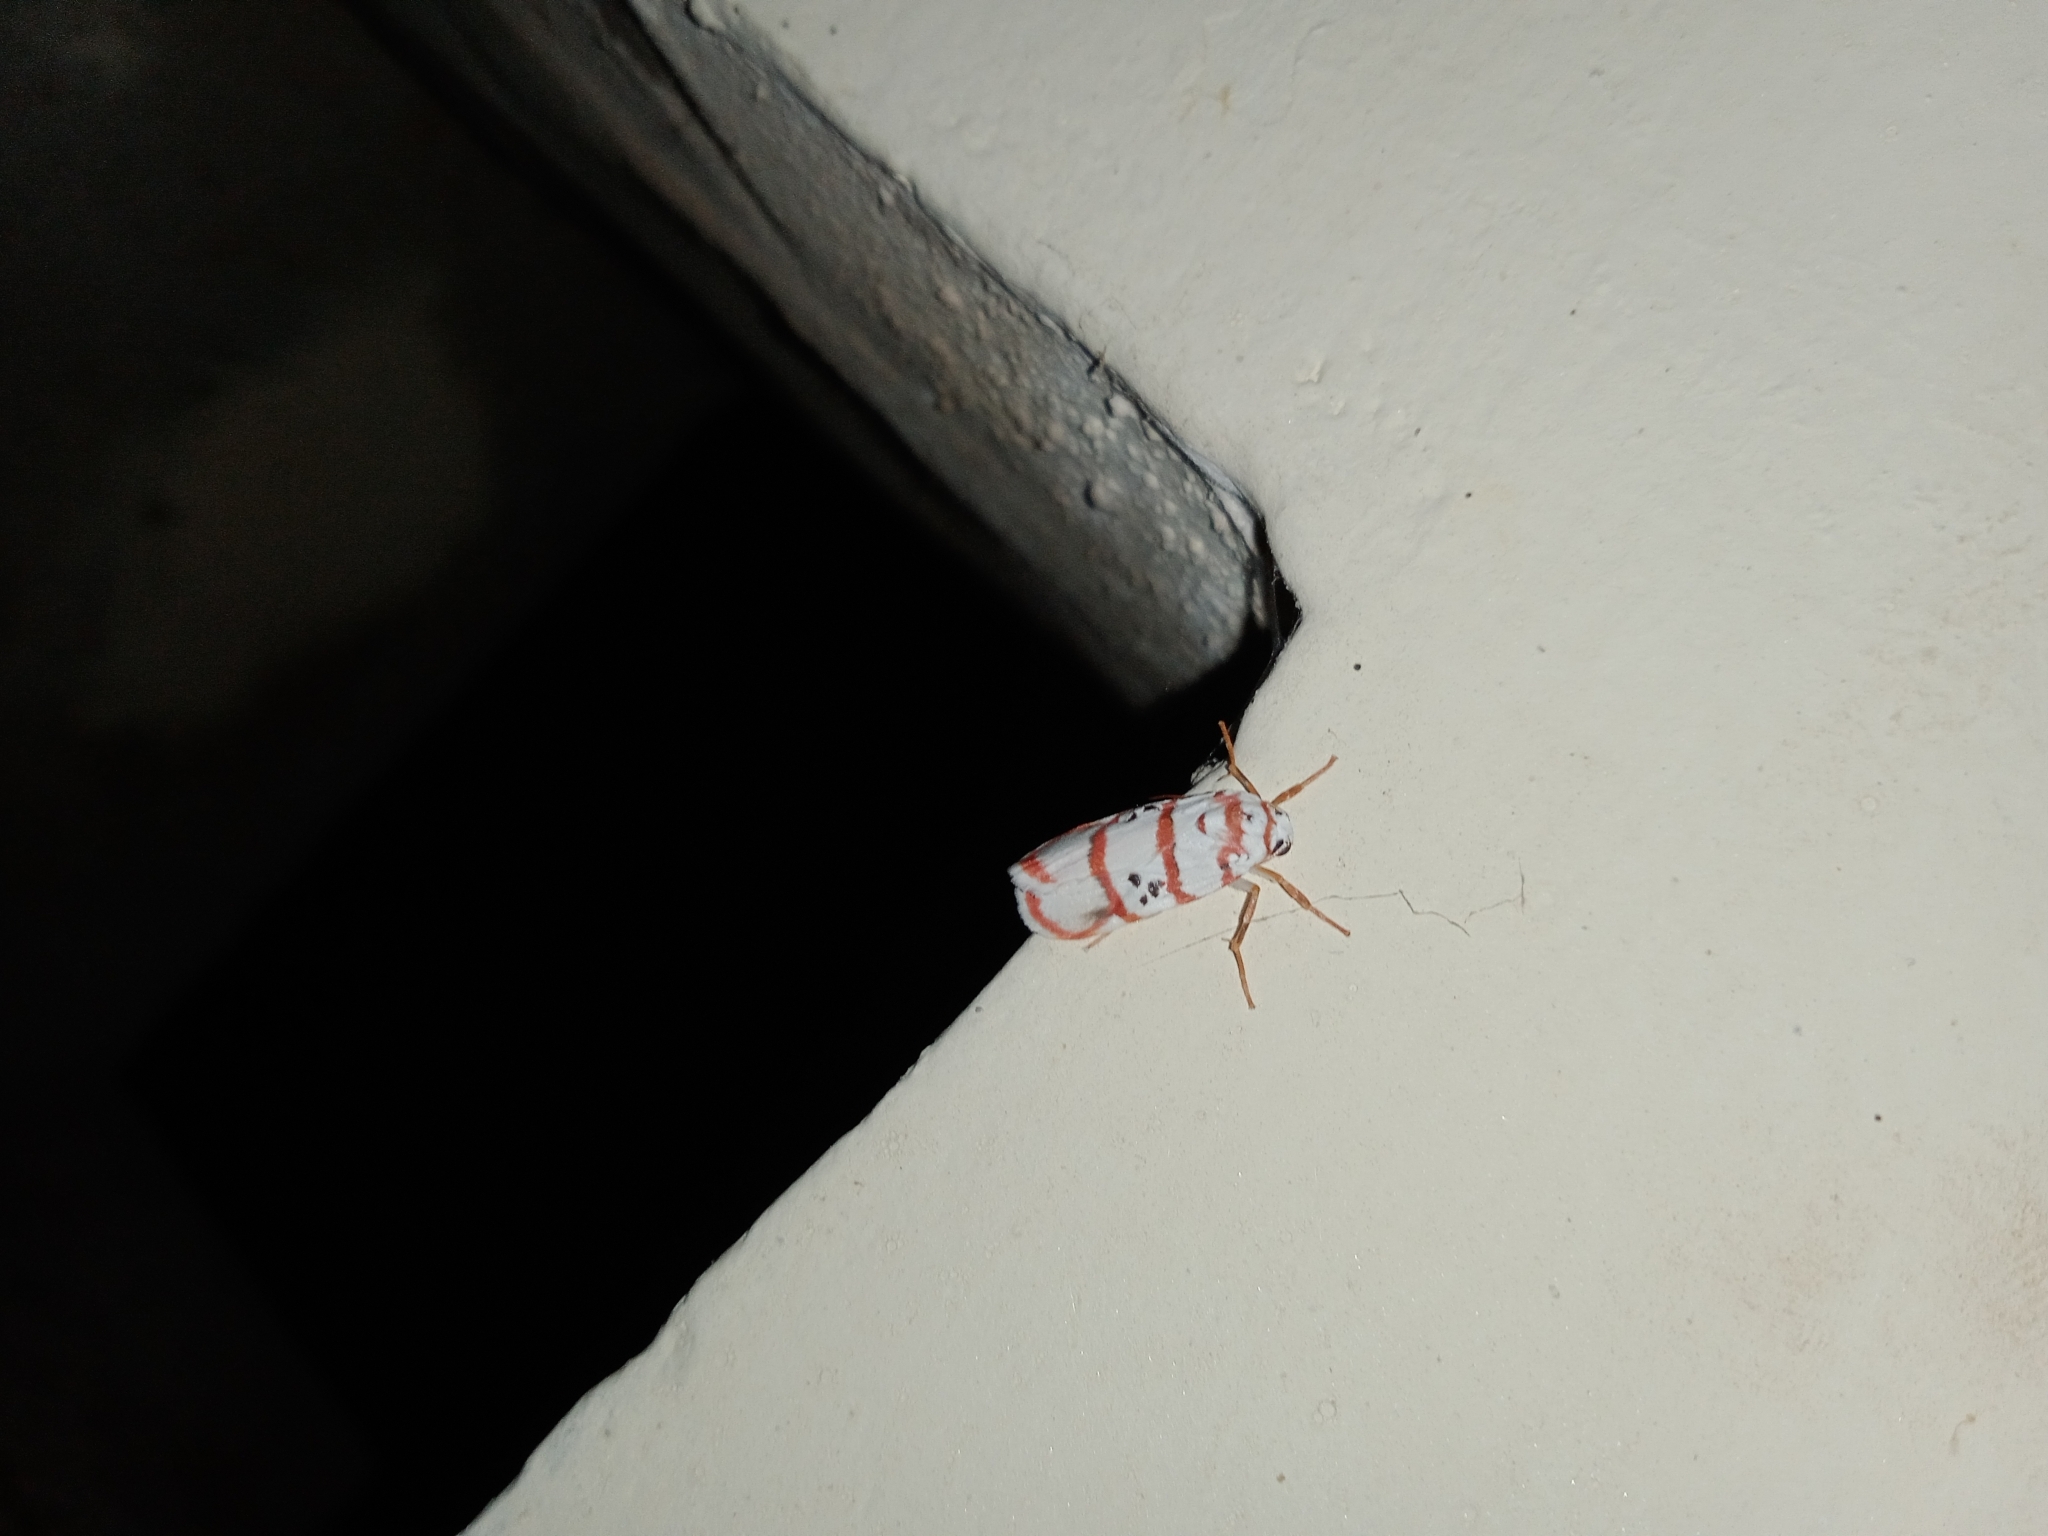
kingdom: Animalia
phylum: Arthropoda
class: Insecta
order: Lepidoptera
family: Erebidae
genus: Cyana
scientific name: Cyana peregrina
